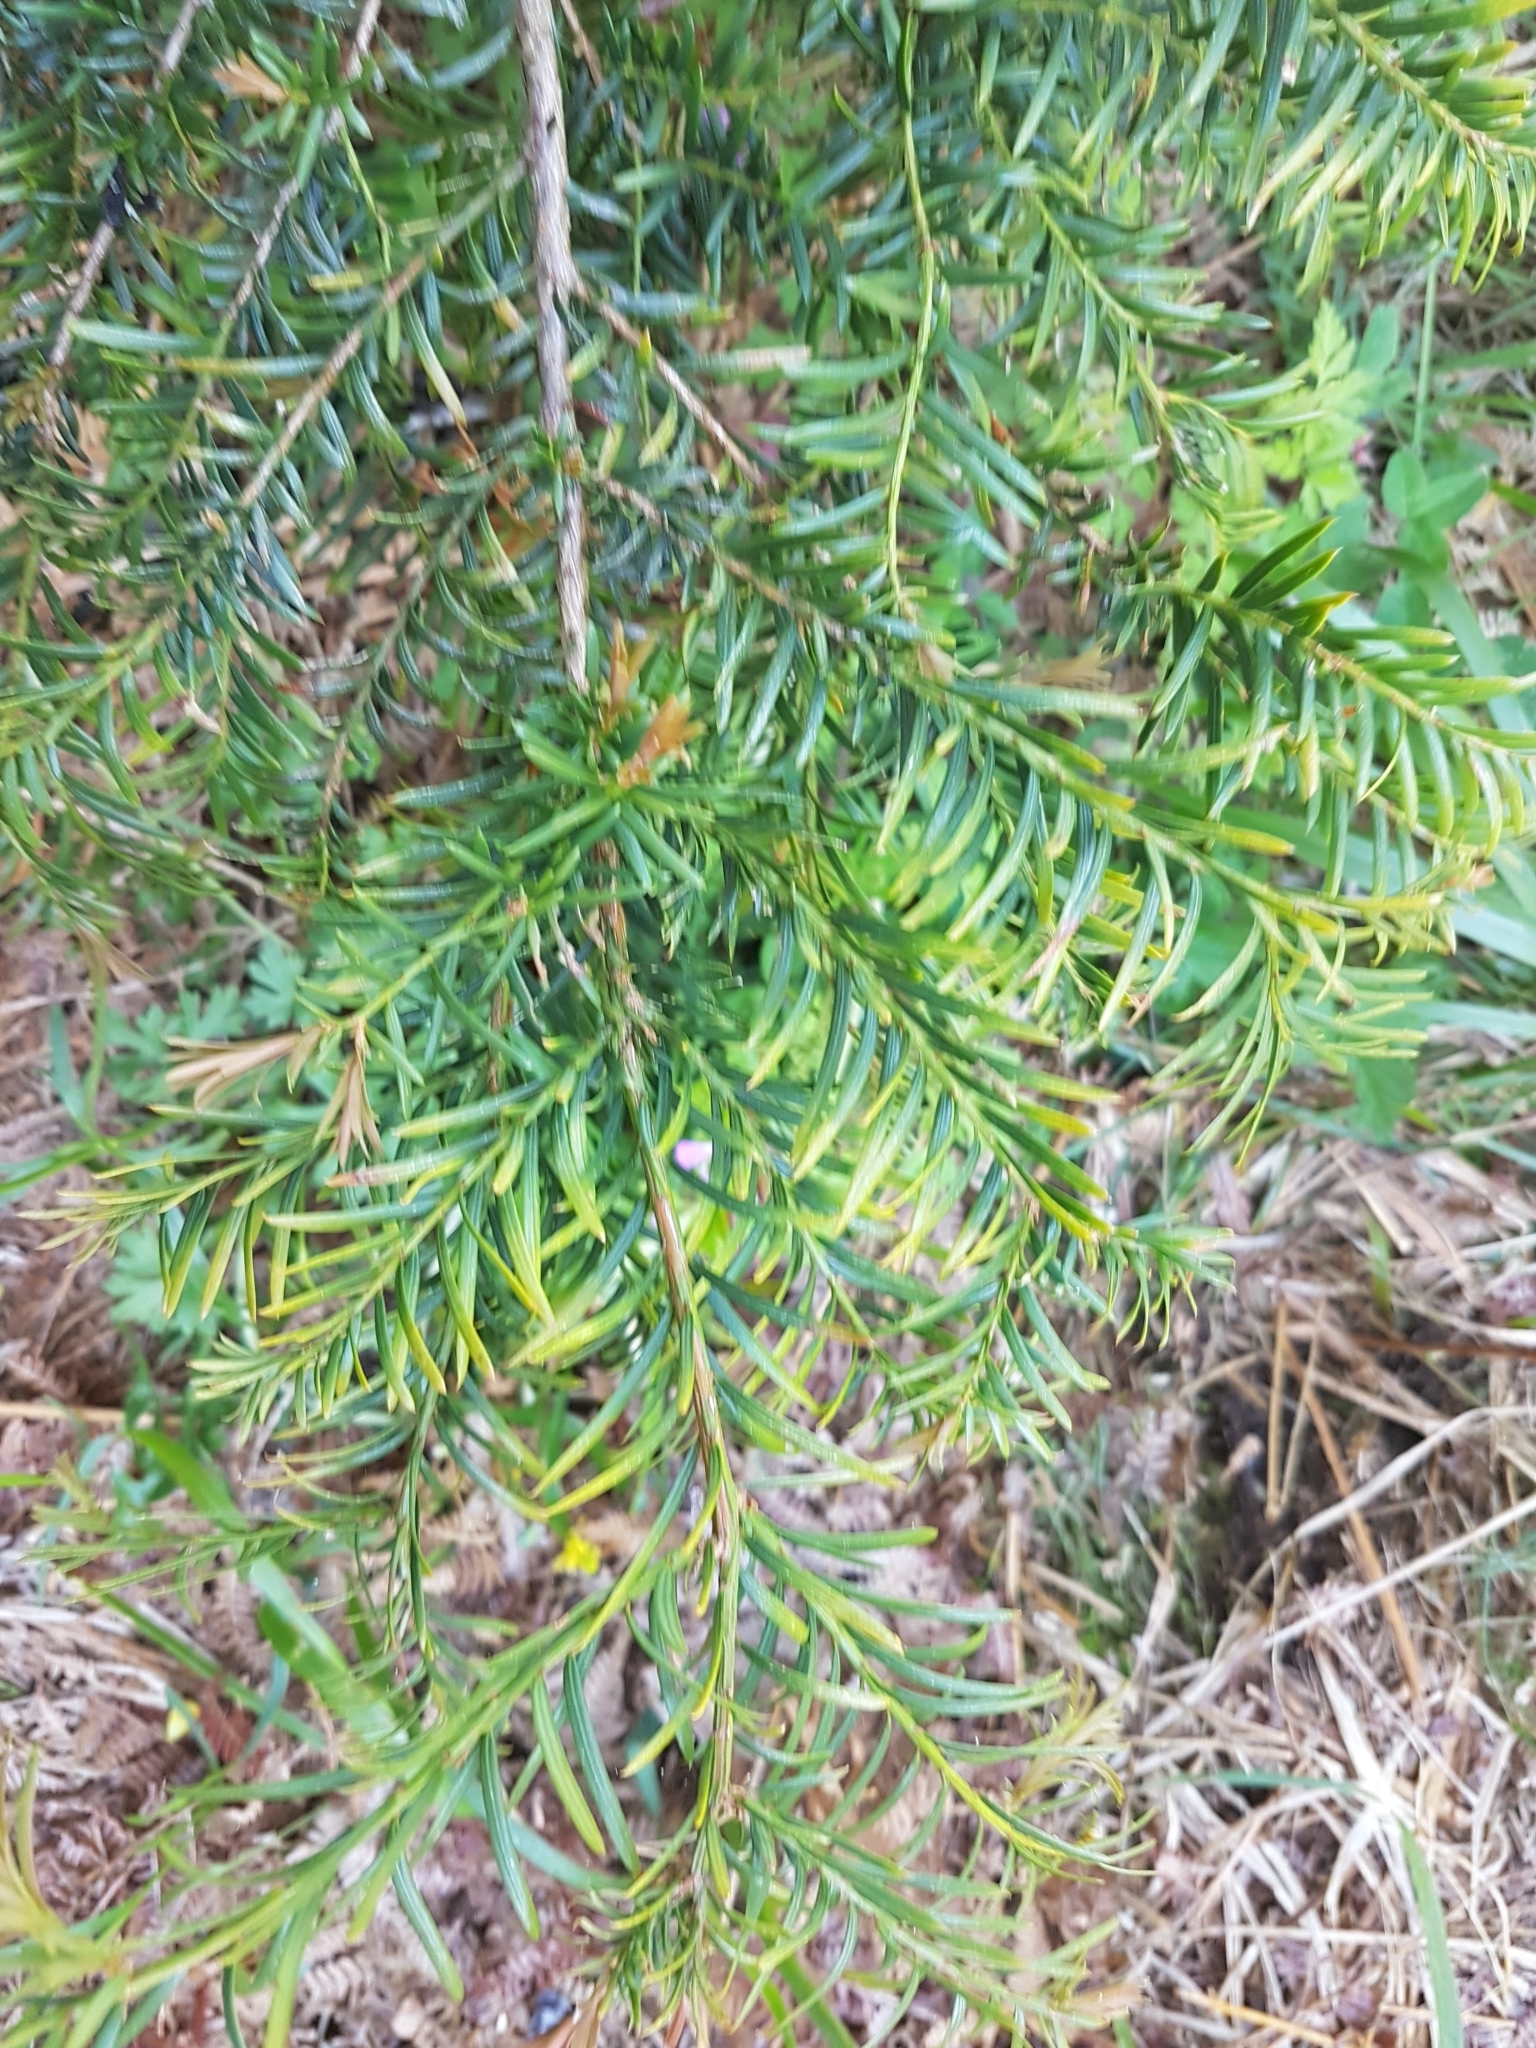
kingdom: Plantae
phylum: Tracheophyta
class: Pinopsida
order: Pinales
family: Taxaceae
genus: Taxus
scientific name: Taxus baccata
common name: Yew
